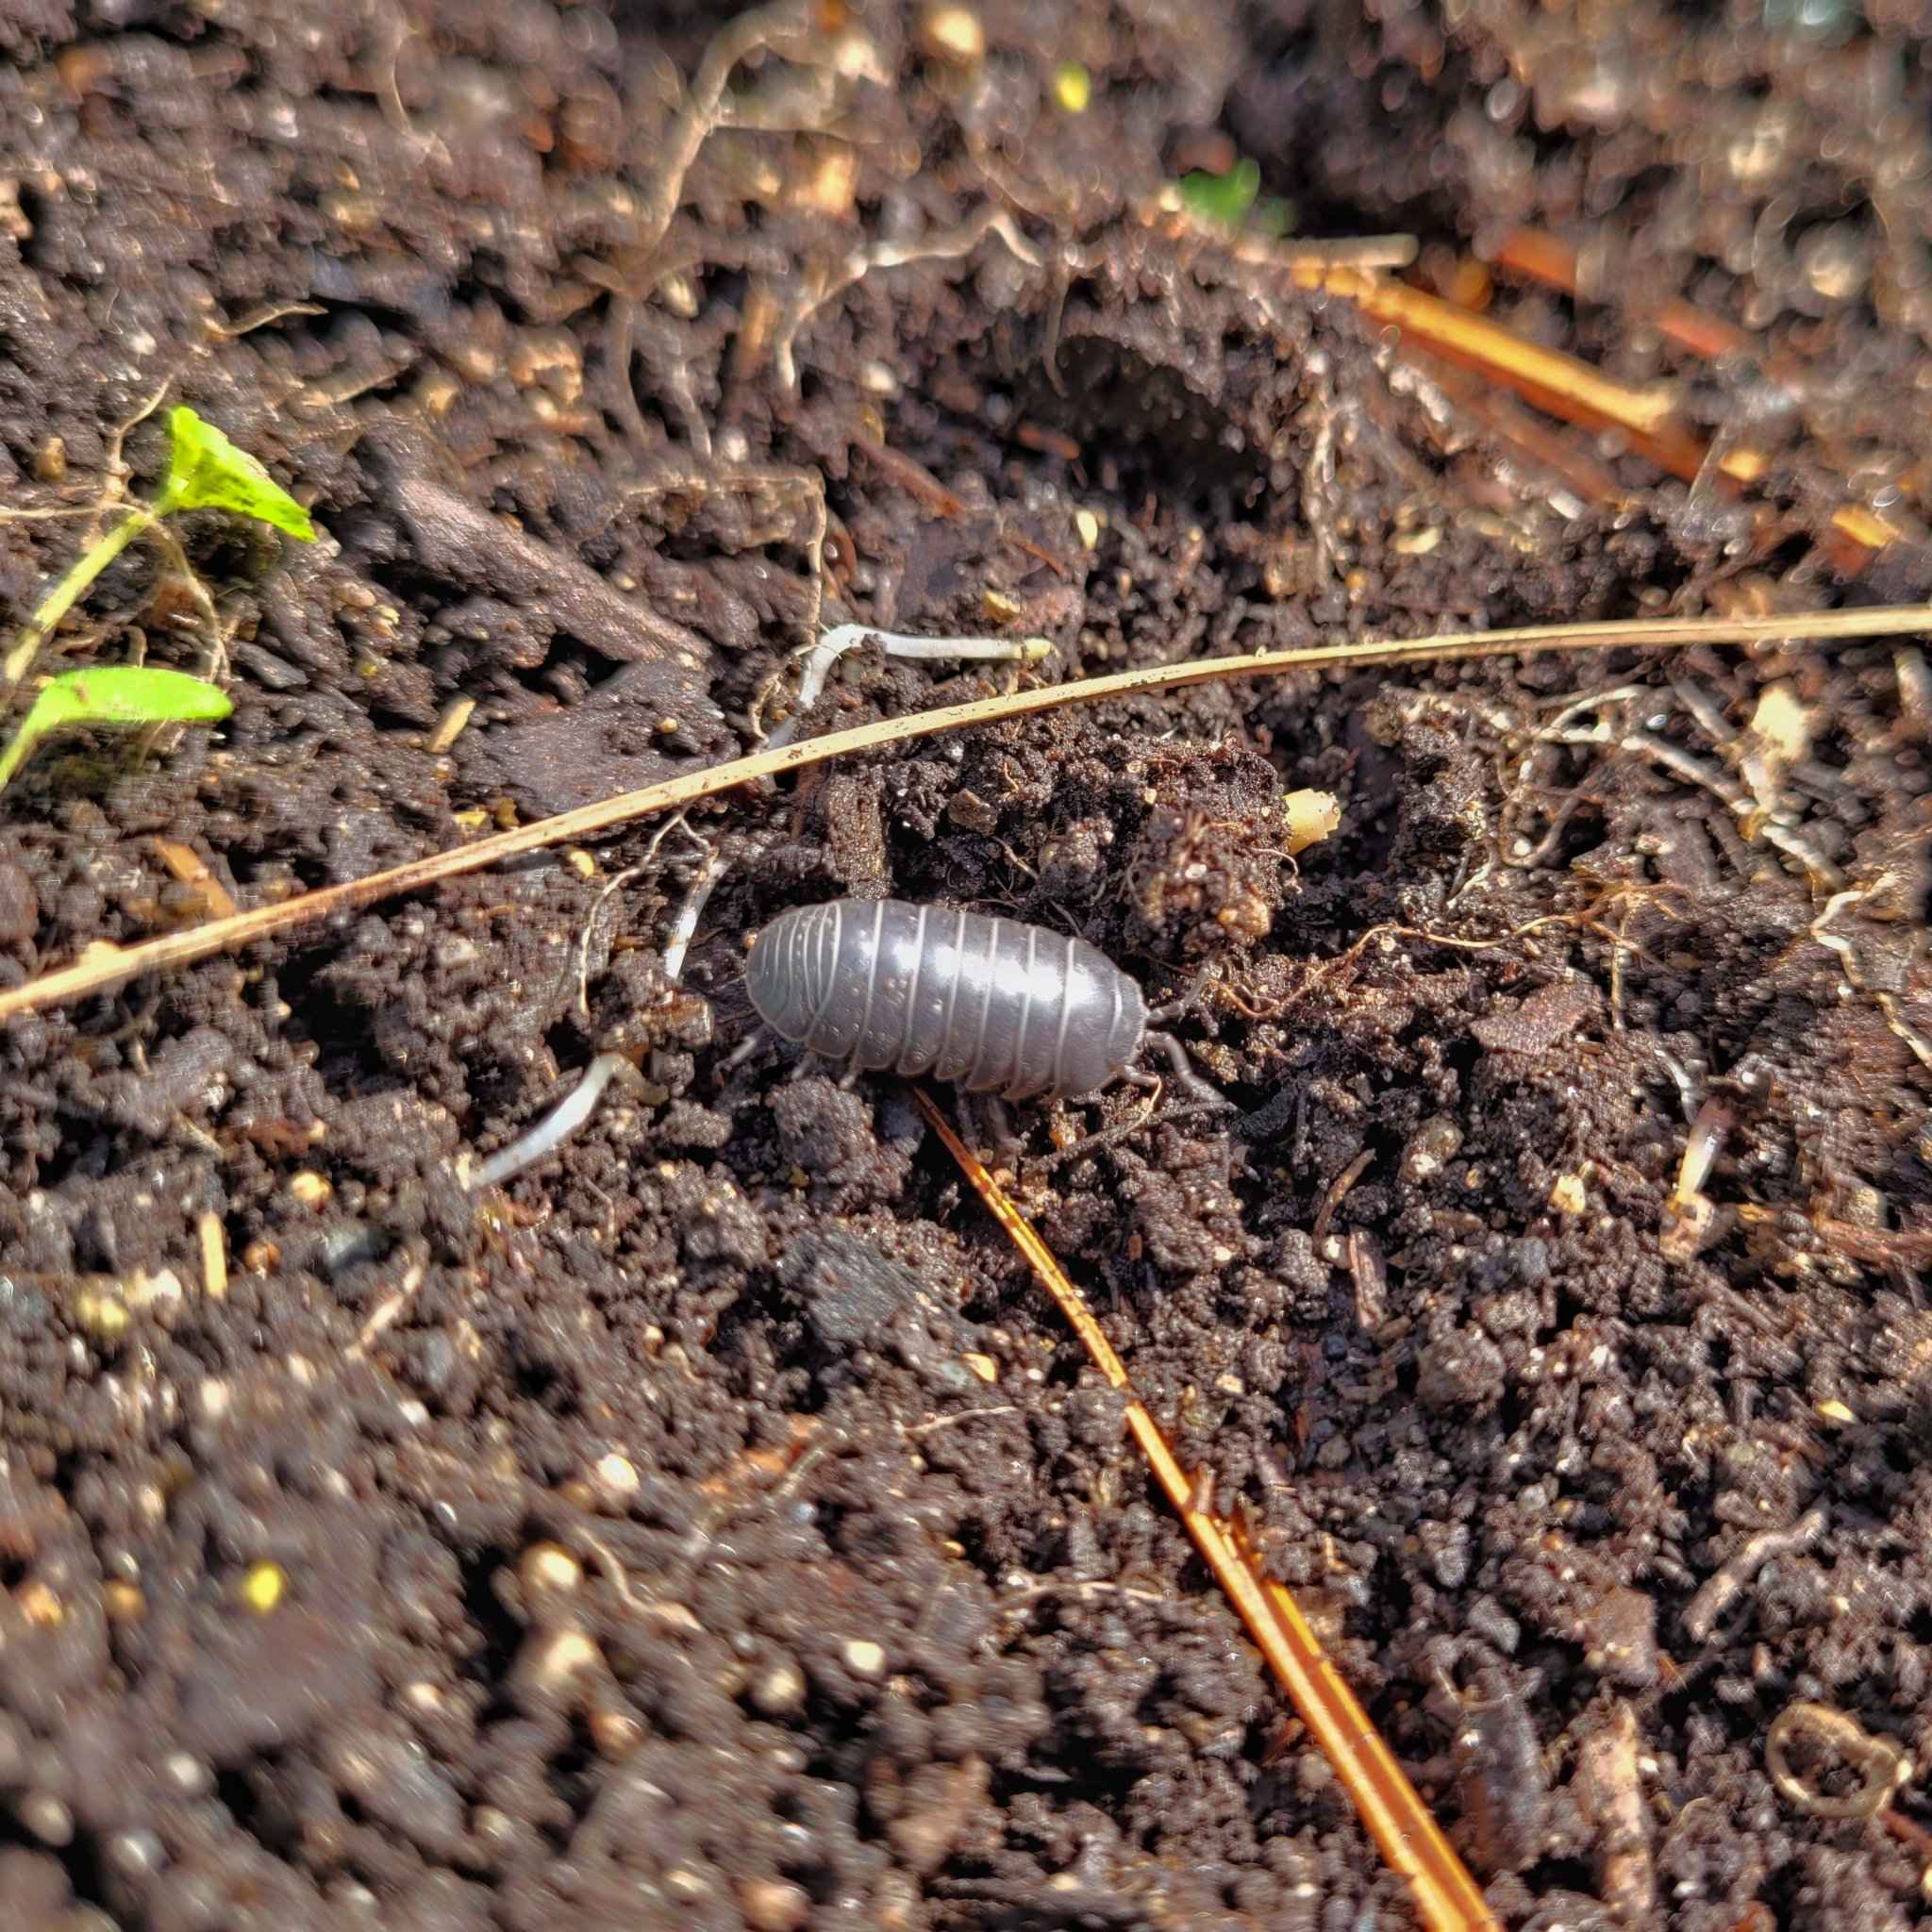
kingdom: Animalia
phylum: Arthropoda
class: Malacostraca
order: Isopoda
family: Armadillidiidae
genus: Armadillidium
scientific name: Armadillidium vulgare
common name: Common pill woodlouse
